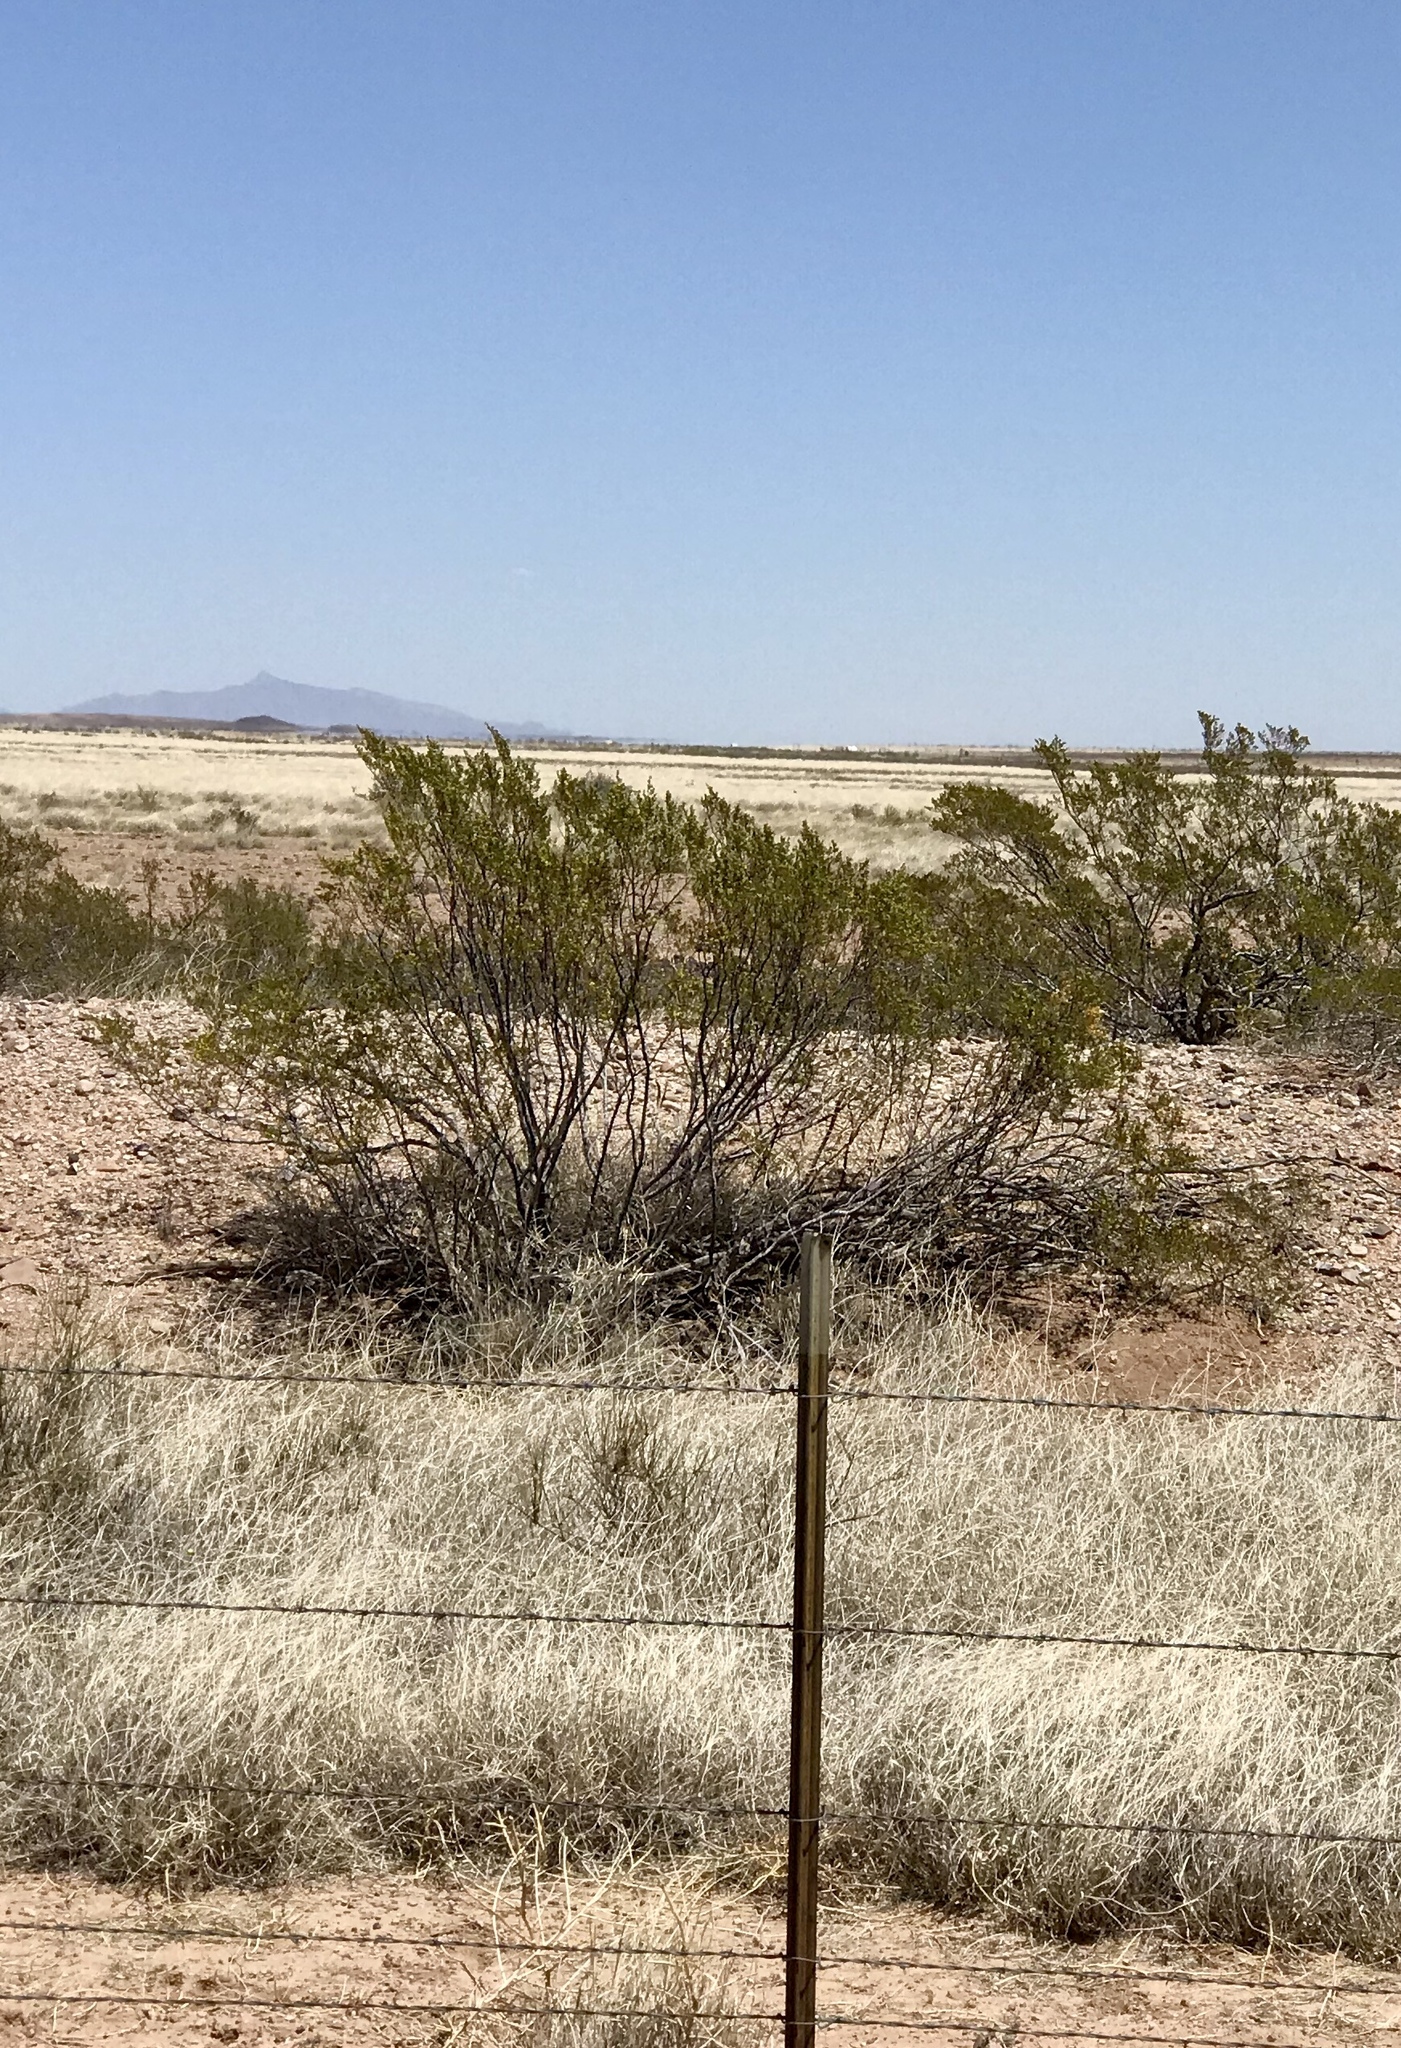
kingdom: Plantae
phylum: Tracheophyta
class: Magnoliopsida
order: Zygophyllales
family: Zygophyllaceae
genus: Larrea
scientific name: Larrea tridentata
